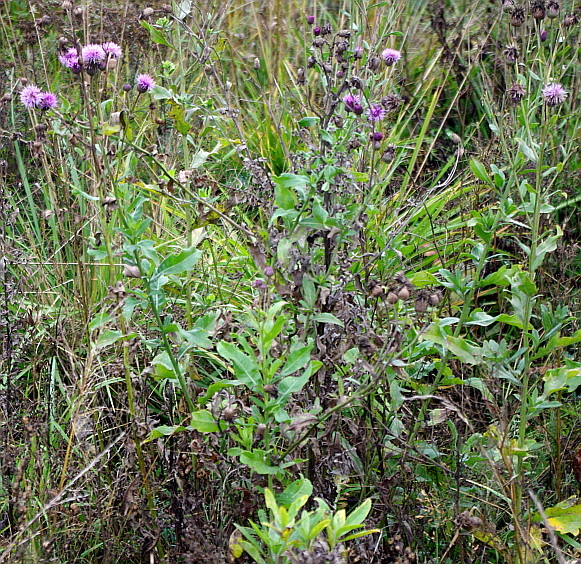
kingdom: Plantae
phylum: Tracheophyta
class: Magnoliopsida
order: Asterales
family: Asteraceae
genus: Cirsium
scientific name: Cirsium arvense
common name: Creeping thistle
